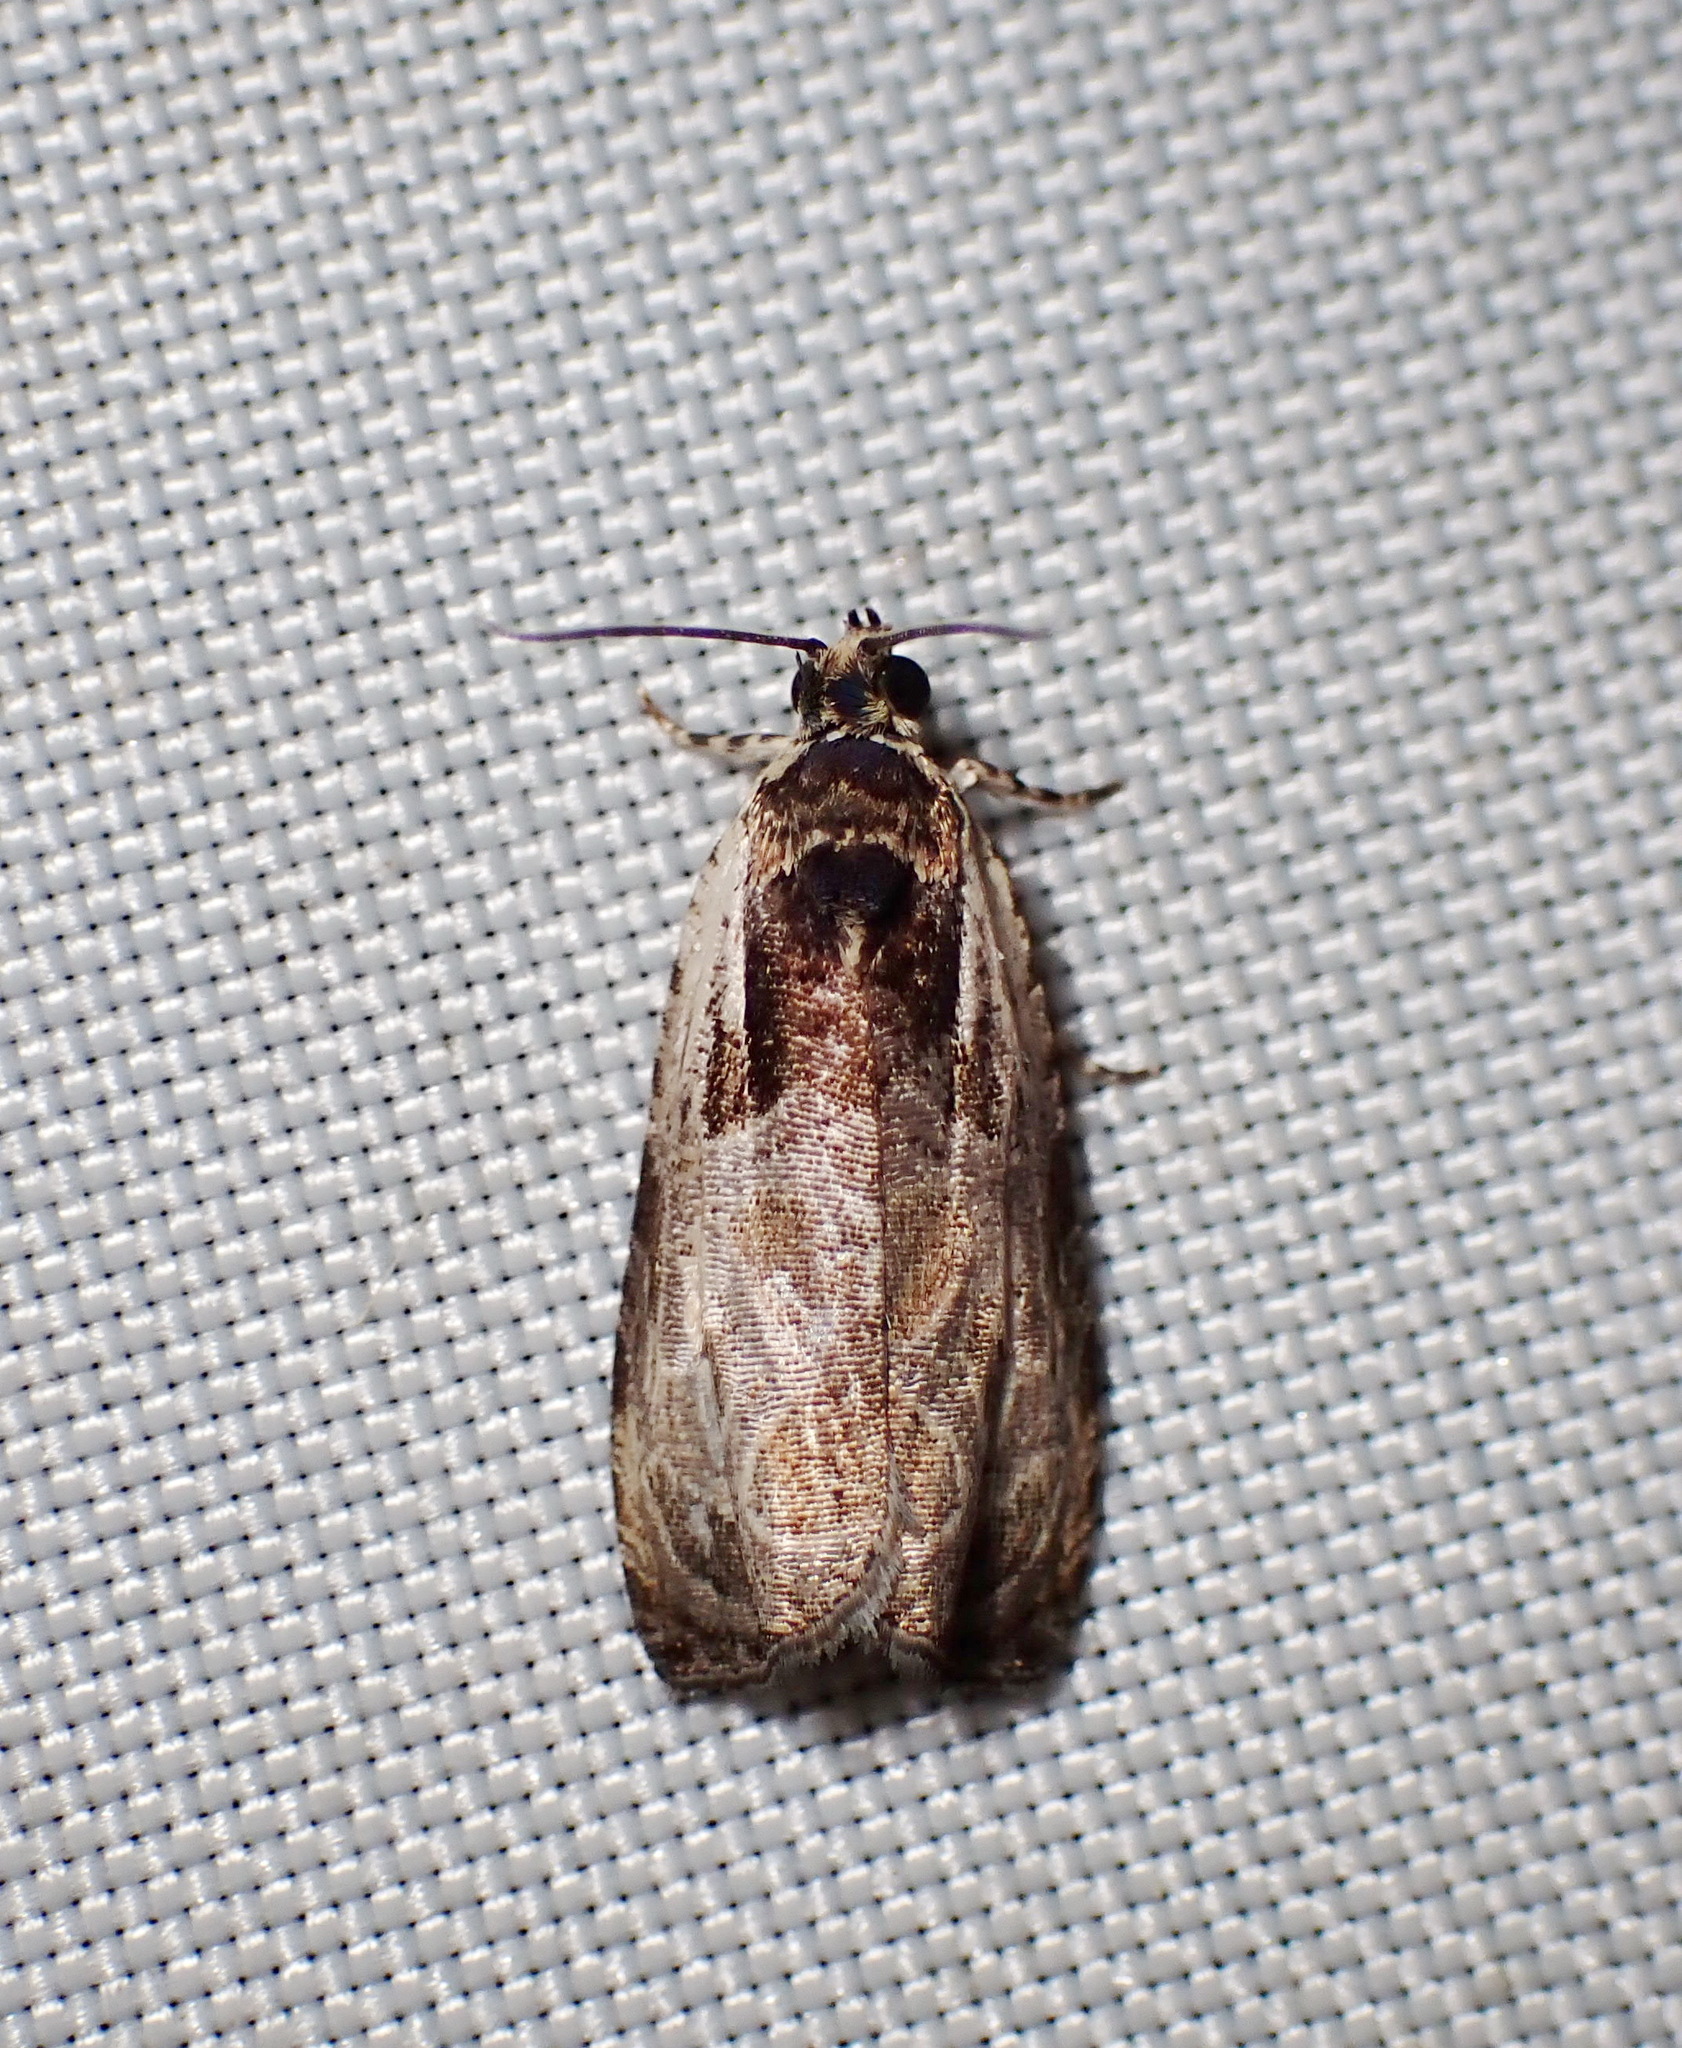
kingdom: Animalia
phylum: Arthropoda
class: Insecta
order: Lepidoptera
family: Tortricidae
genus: Olethreutes
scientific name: Olethreutes exaeresimum
